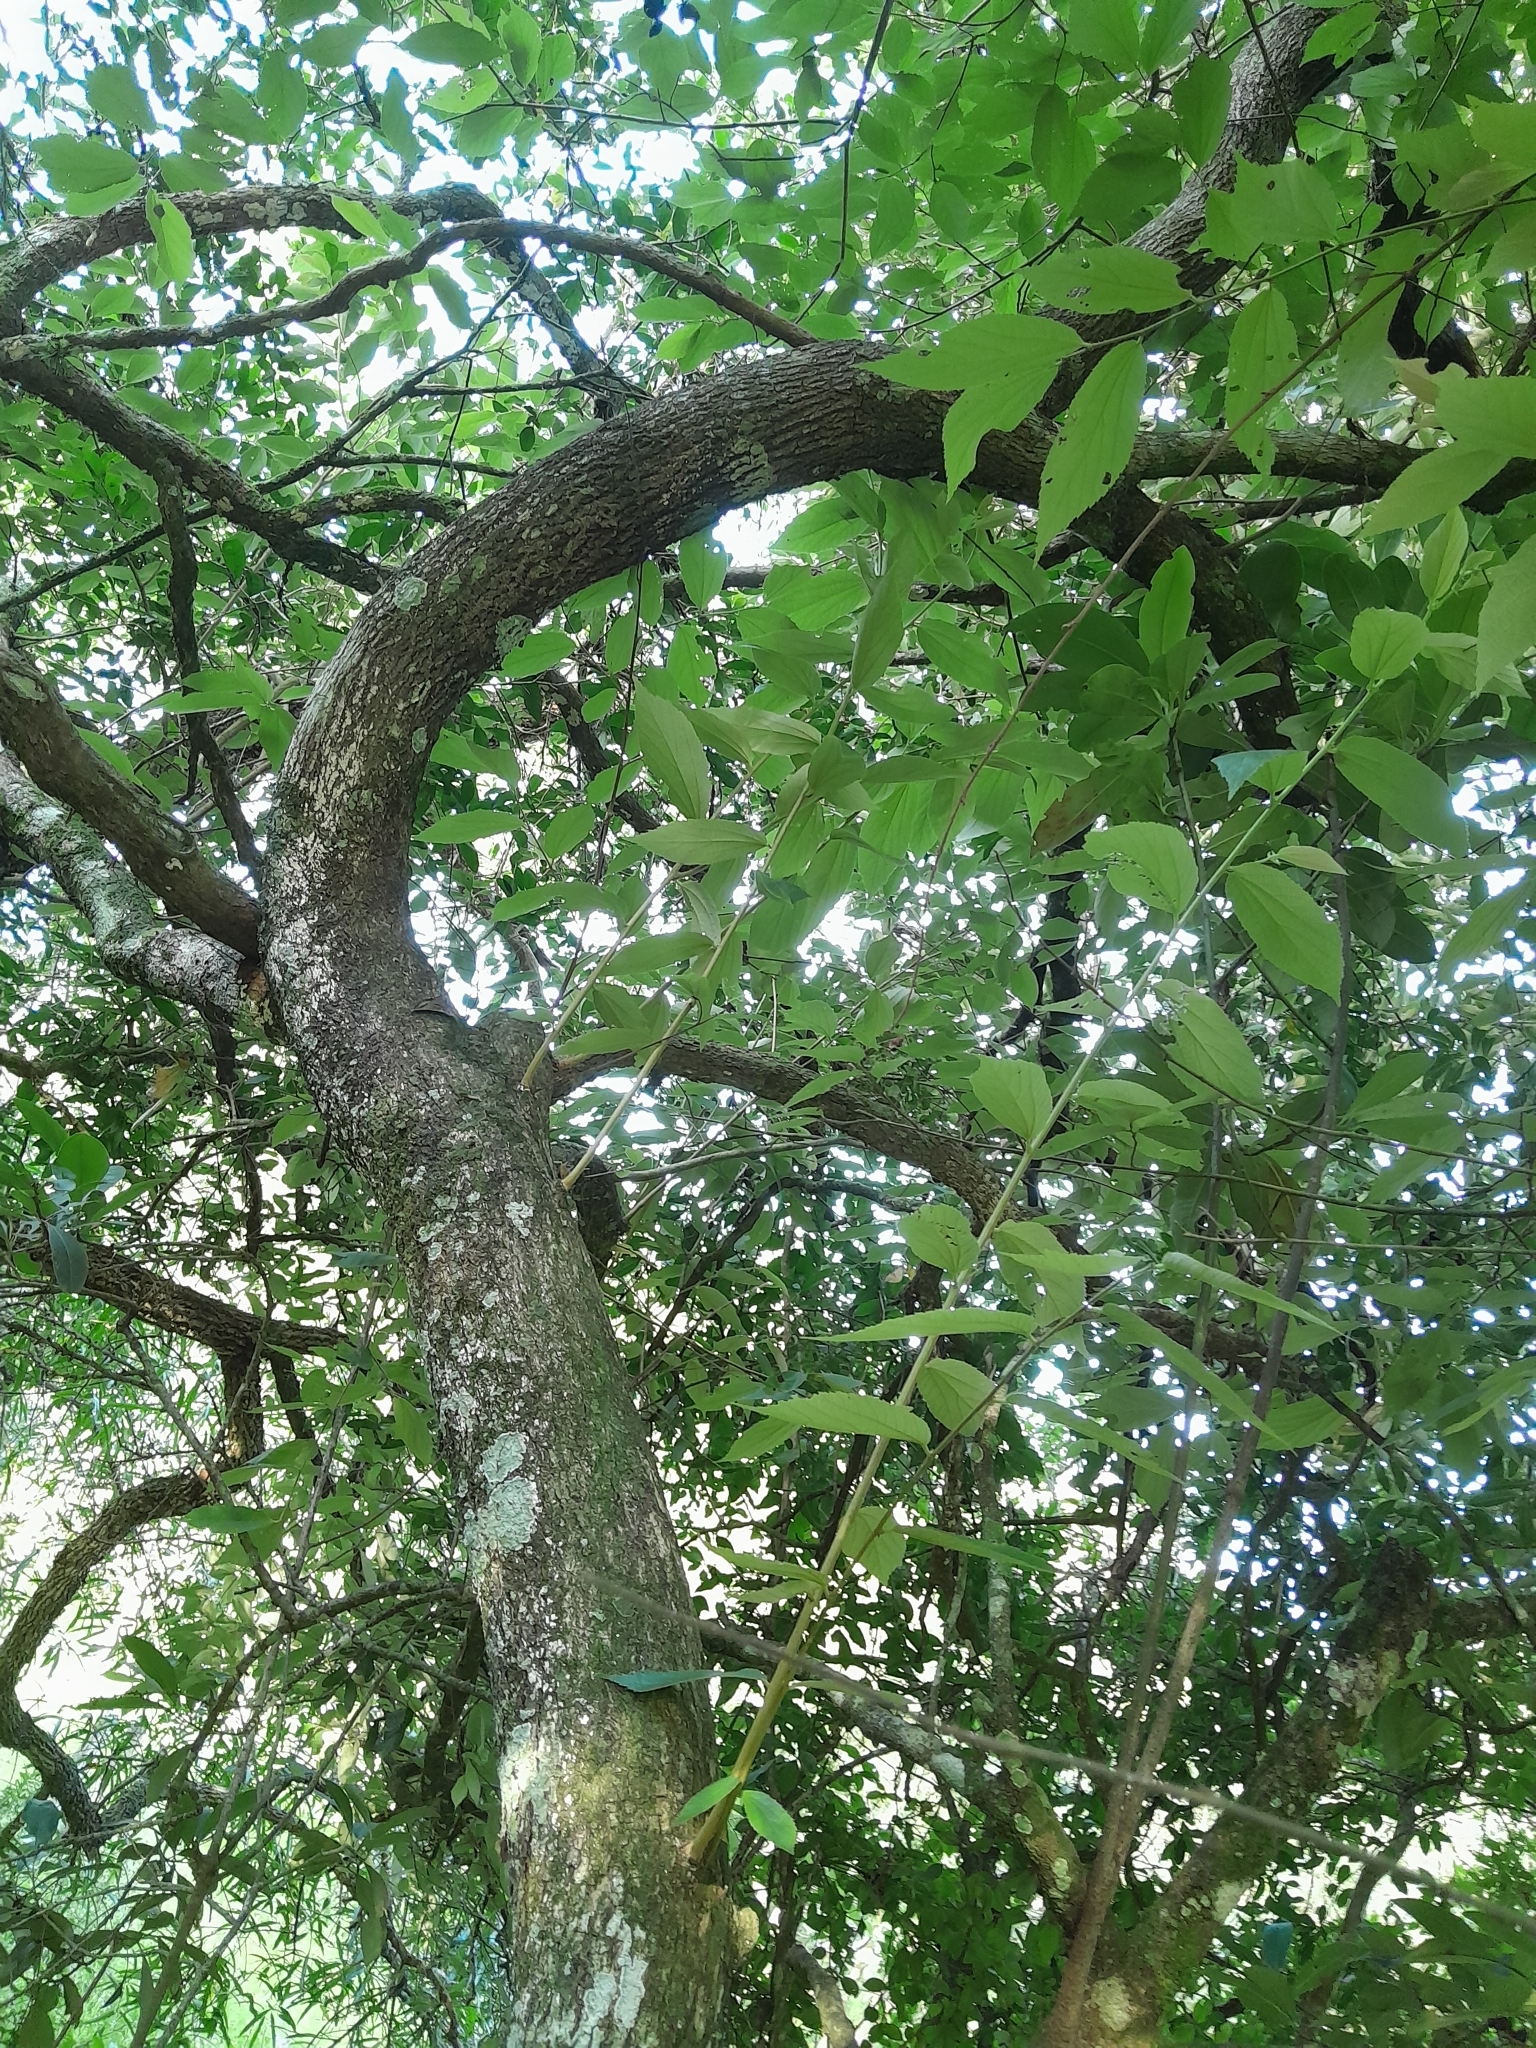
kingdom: Plantae
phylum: Tracheophyta
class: Magnoliopsida
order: Malvales
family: Malvaceae
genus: Luehea
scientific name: Luehea divaricata
